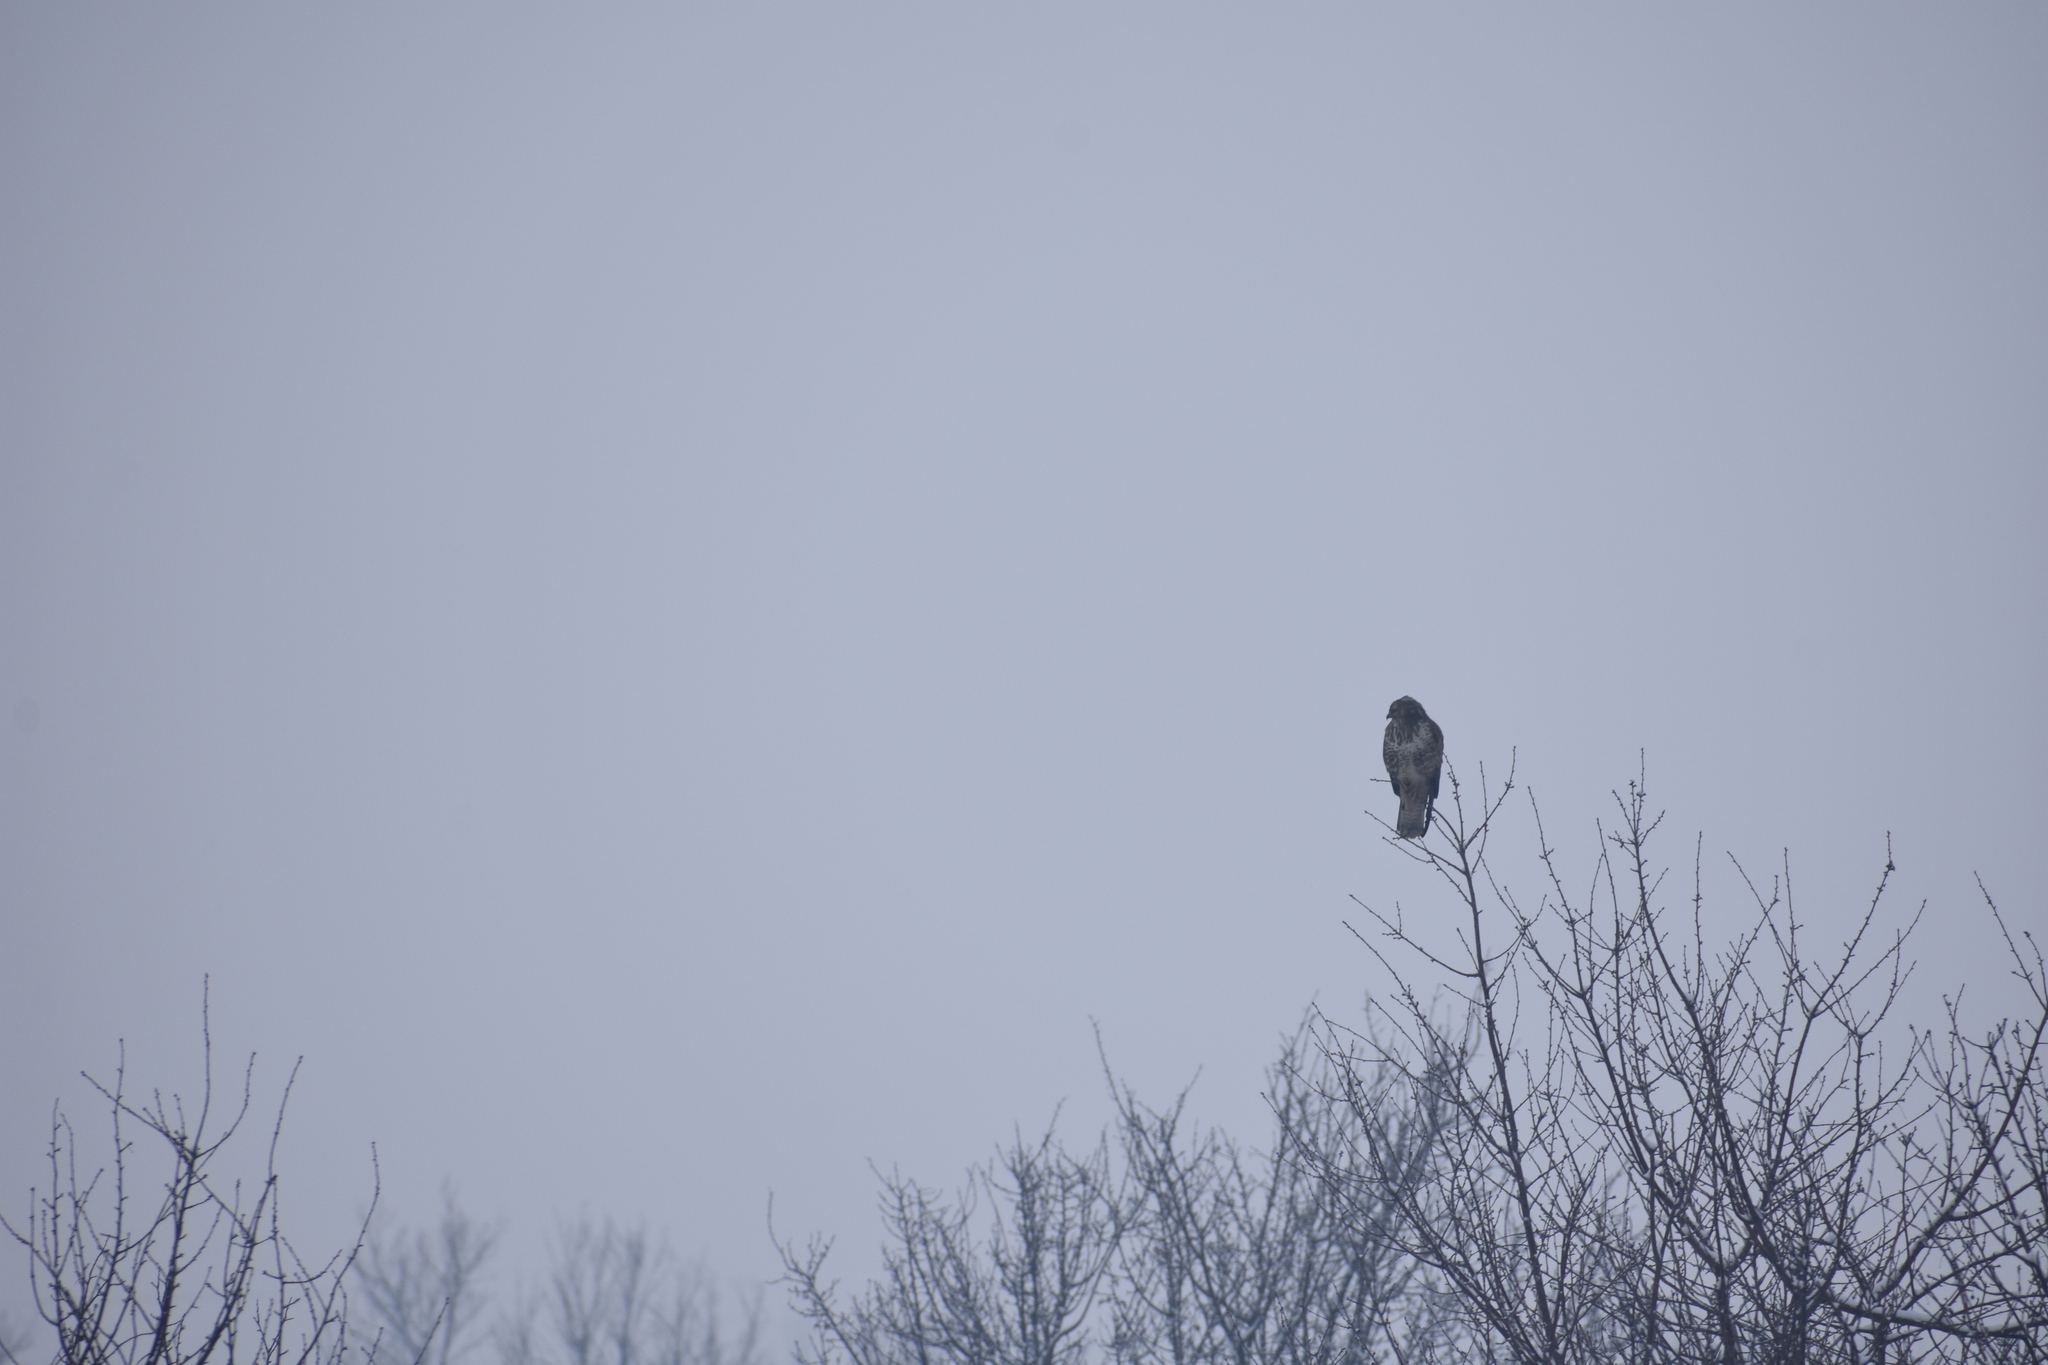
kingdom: Animalia
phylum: Chordata
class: Aves
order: Accipitriformes
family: Accipitridae
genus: Buteo
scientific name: Buteo buteo
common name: Common buzzard
